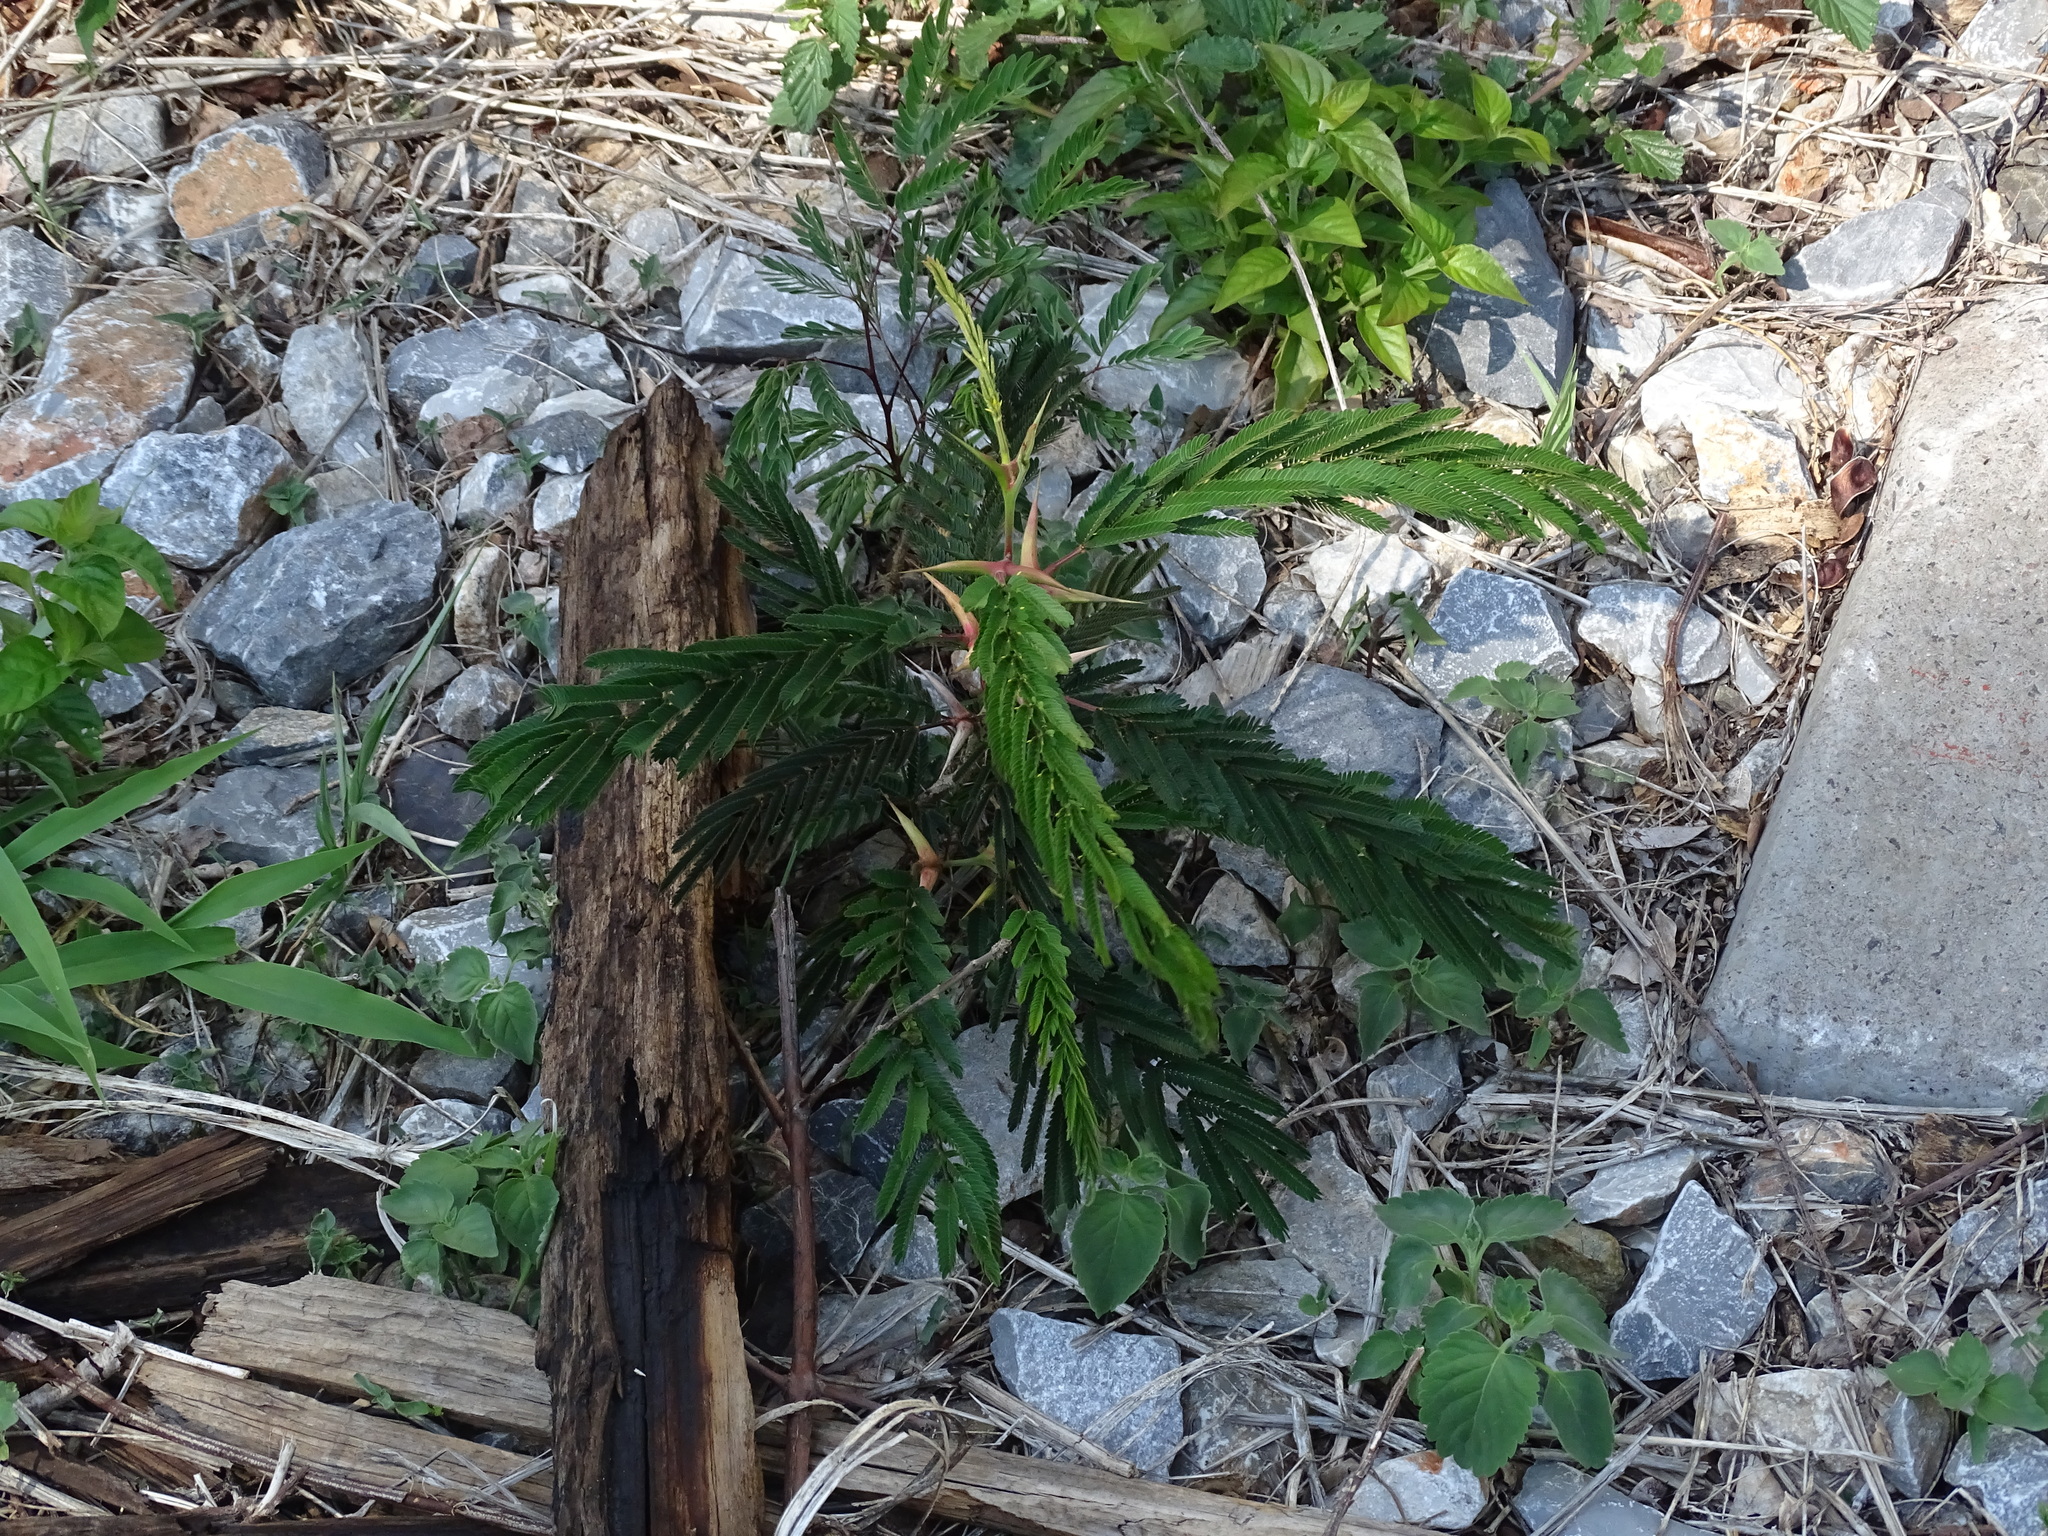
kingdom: Plantae
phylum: Tracheophyta
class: Magnoliopsida
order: Fabales
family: Fabaceae
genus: Vachellia
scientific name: Vachellia cornigera
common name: Bullhorn wattle
